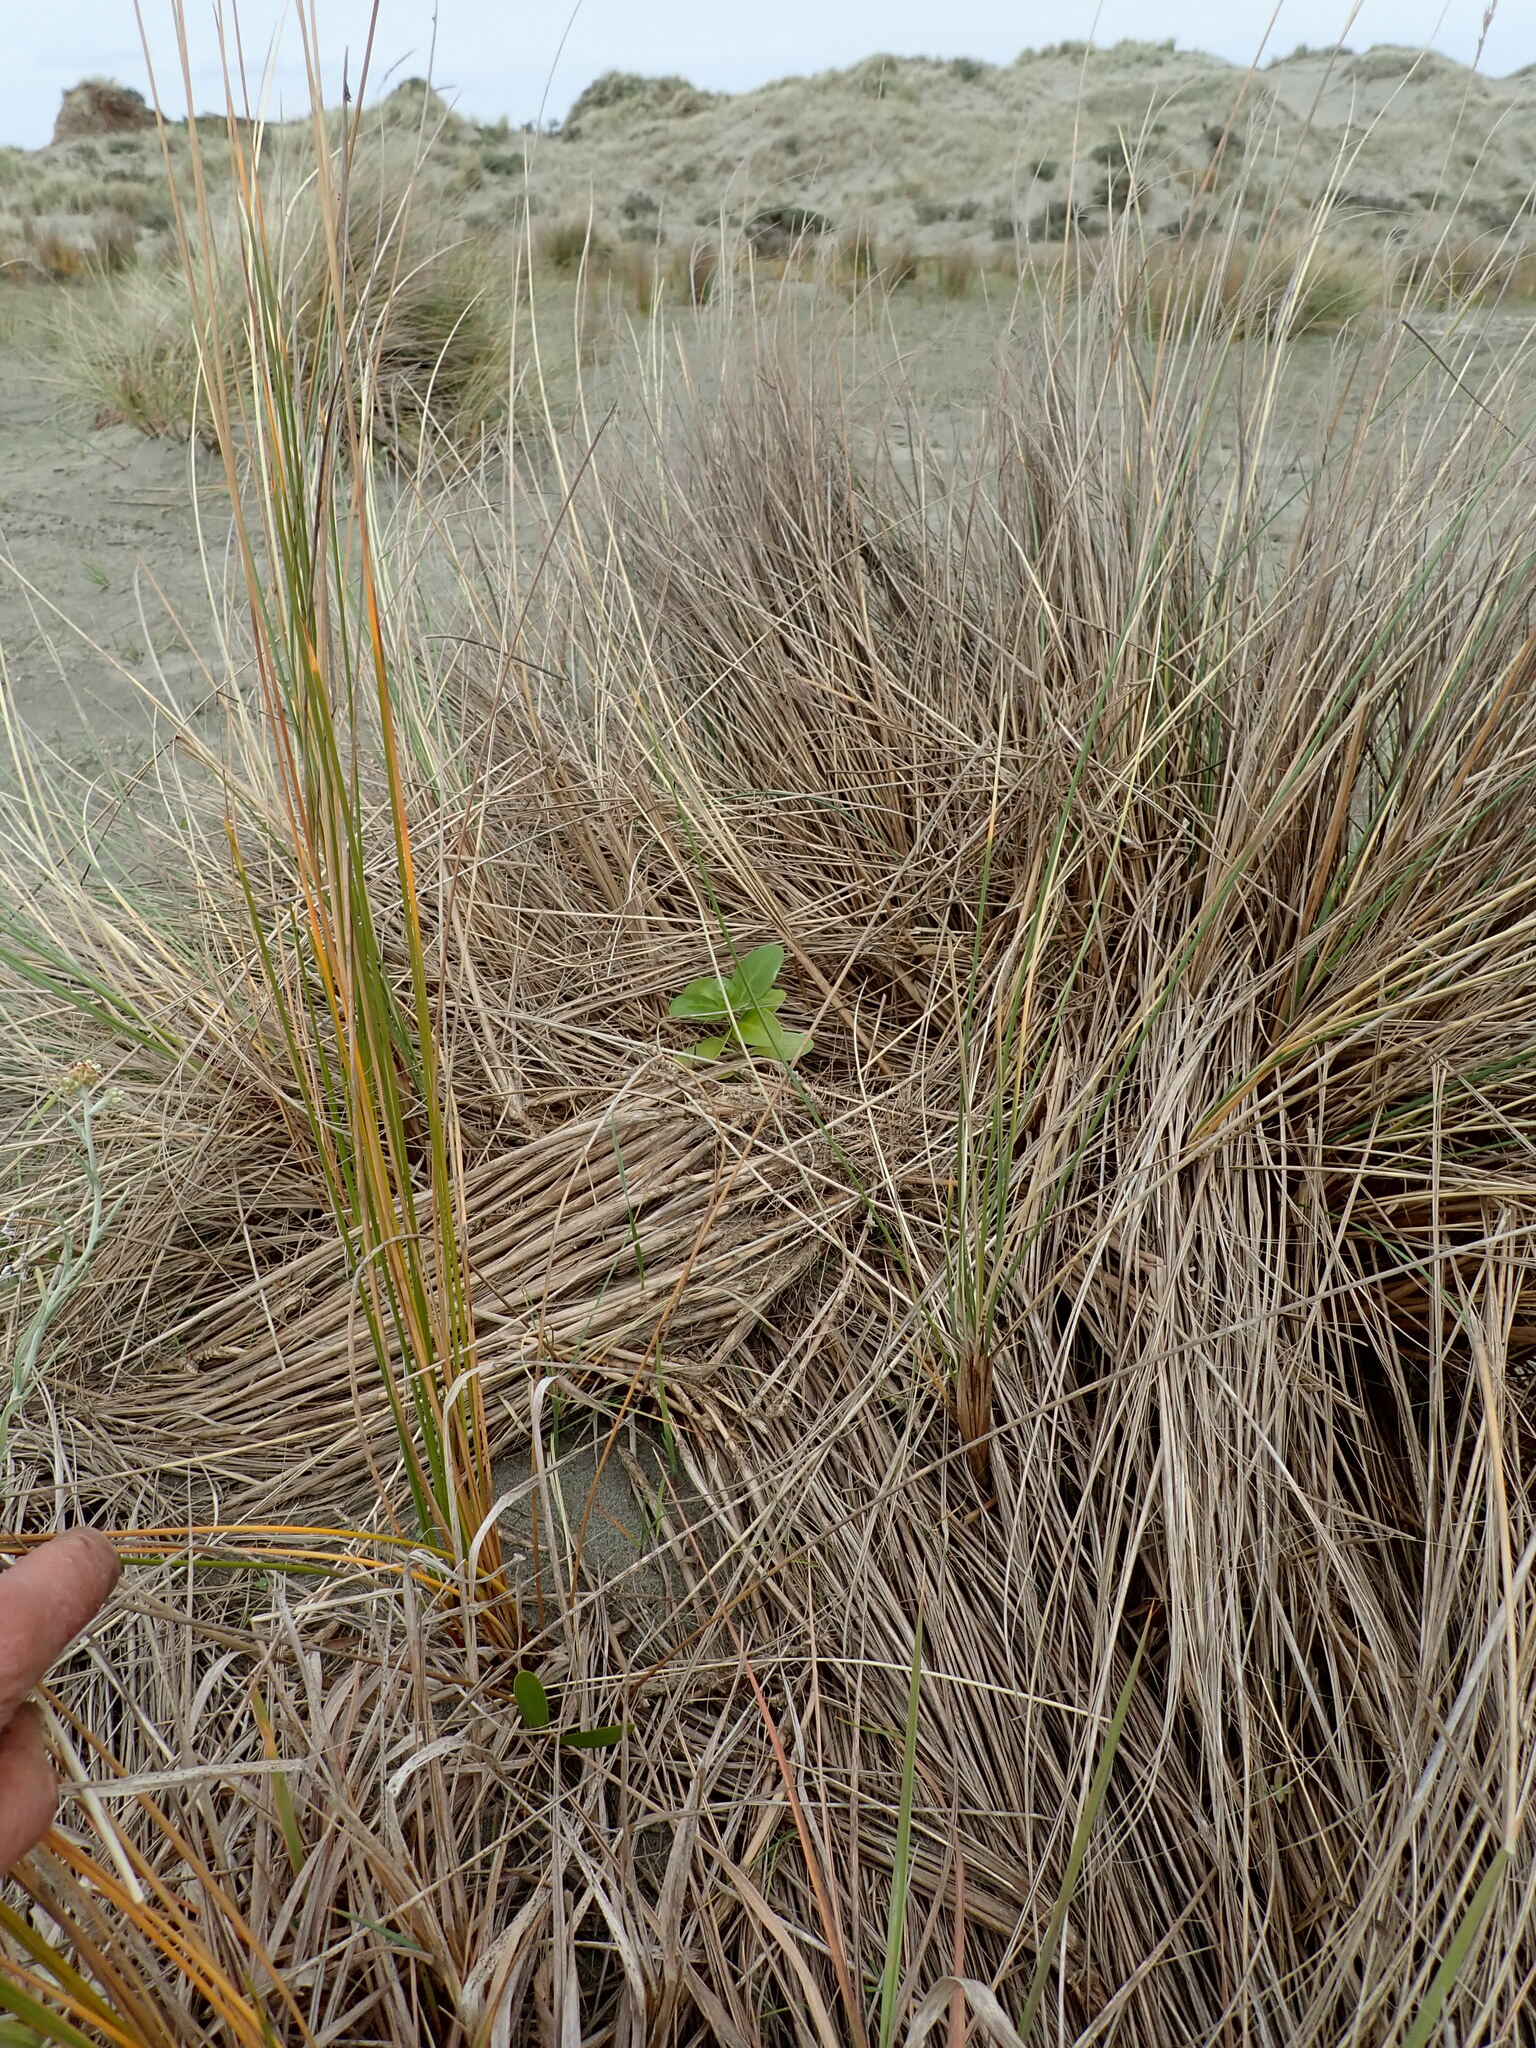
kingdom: Plantae
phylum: Tracheophyta
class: Magnoliopsida
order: Gentianales
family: Rubiaceae
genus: Coprosma
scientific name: Coprosma repens
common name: Tree bedstraw
